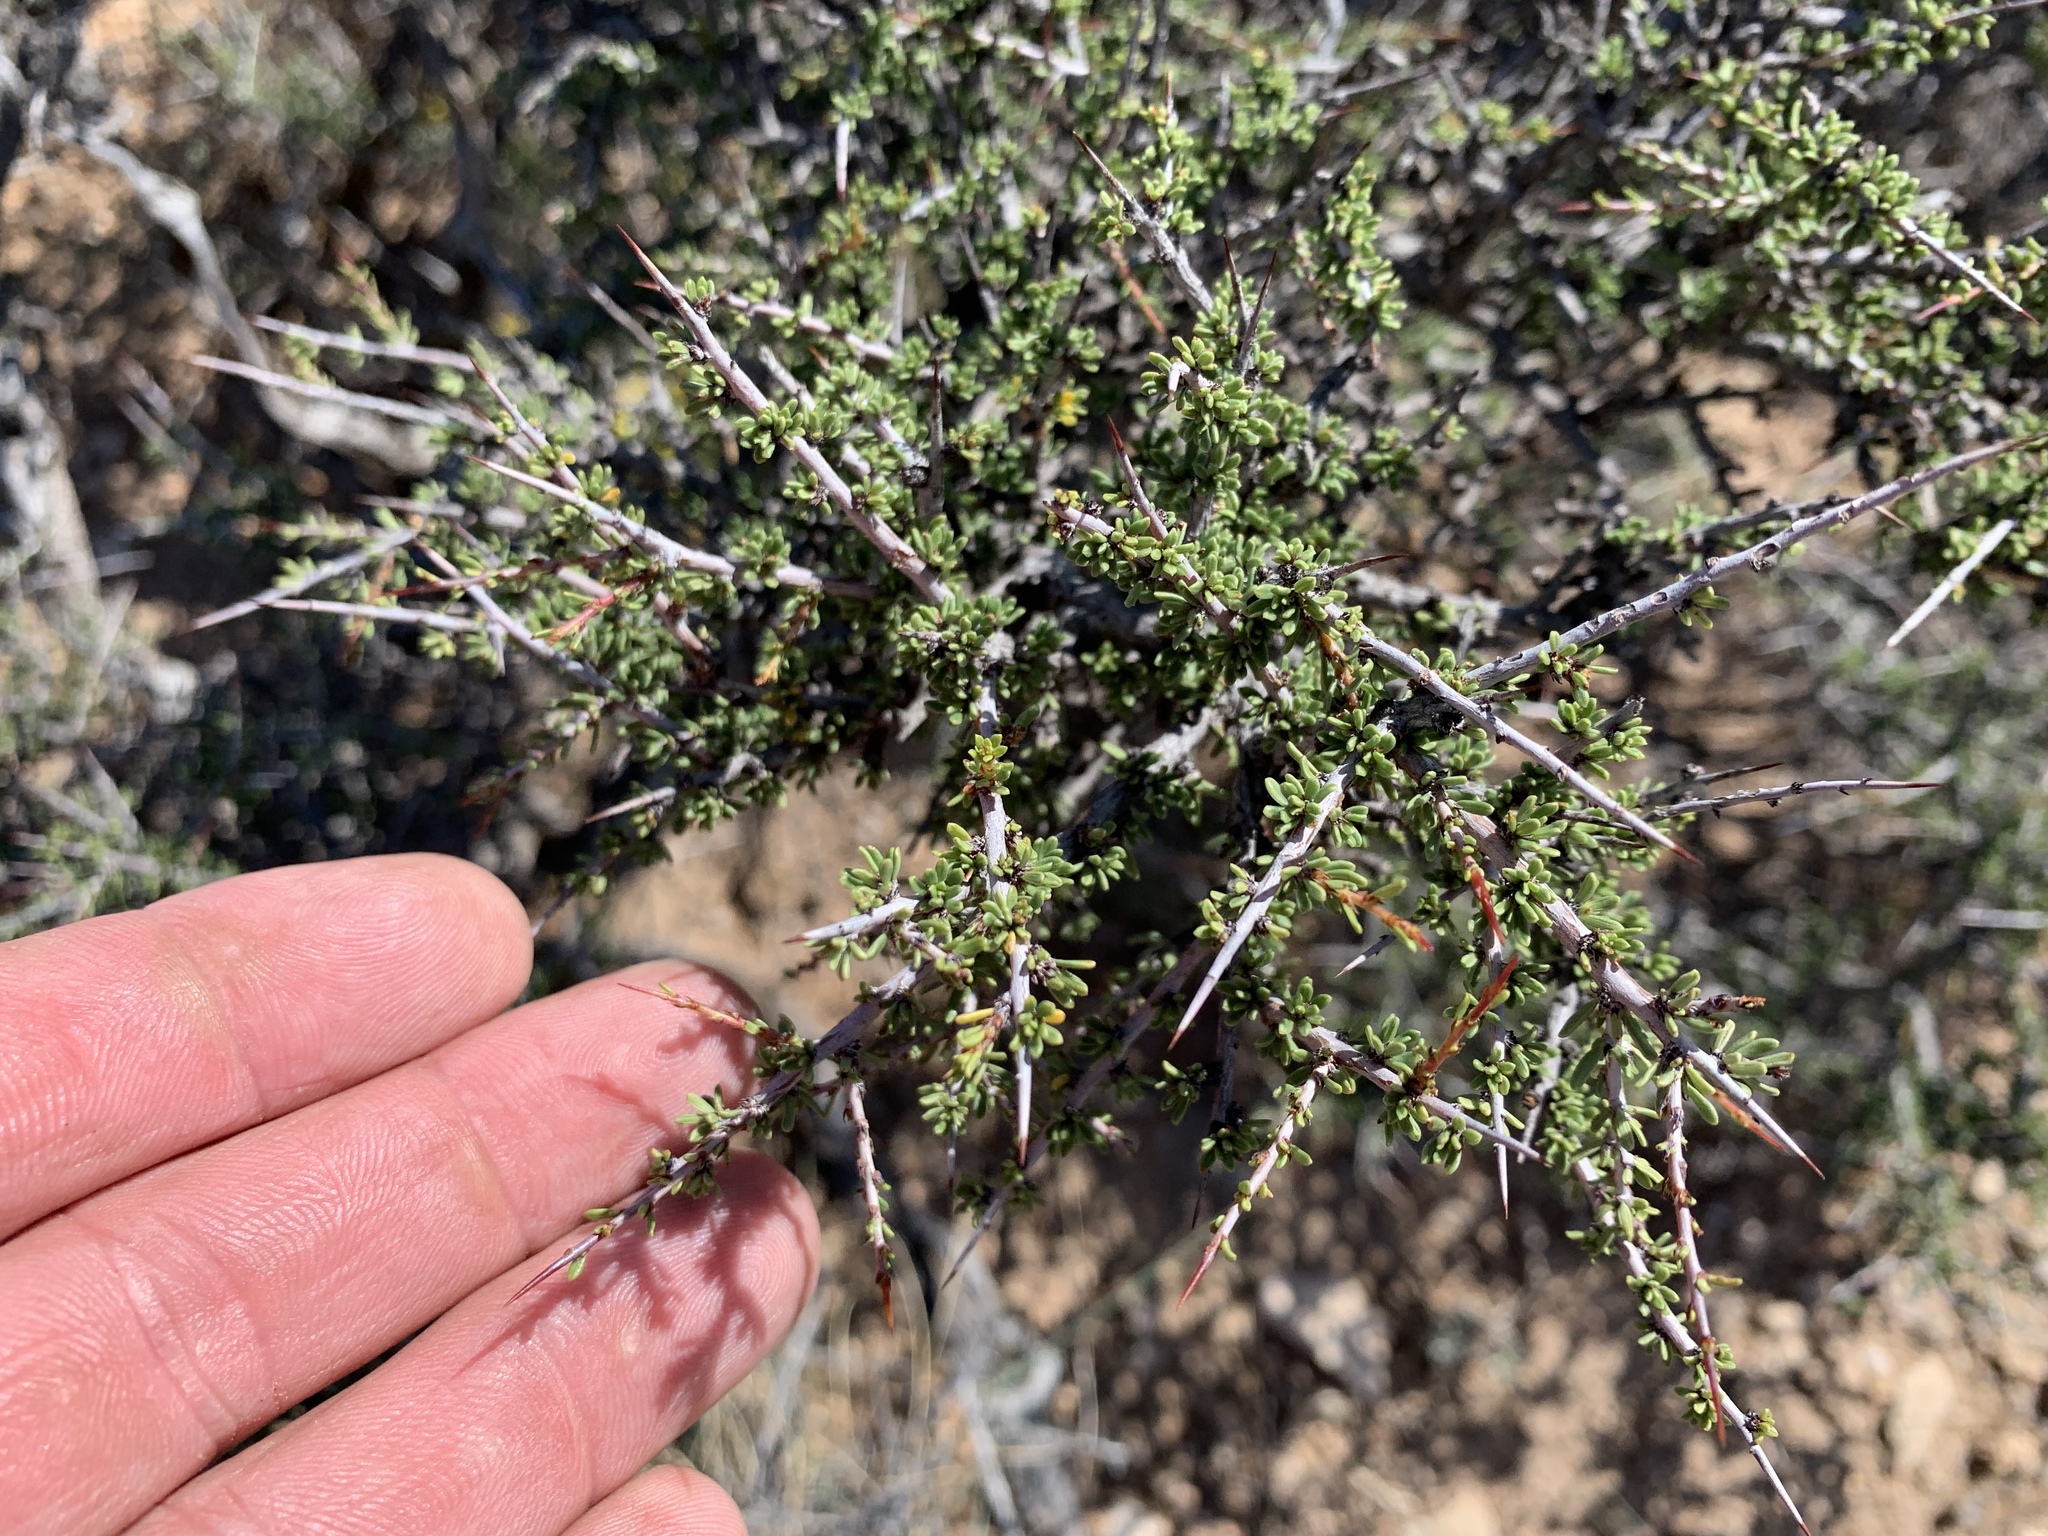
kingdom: Plantae
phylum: Tracheophyta
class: Magnoliopsida
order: Rosales
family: Rhamnaceae
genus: Condalia
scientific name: Condalia ericoides
